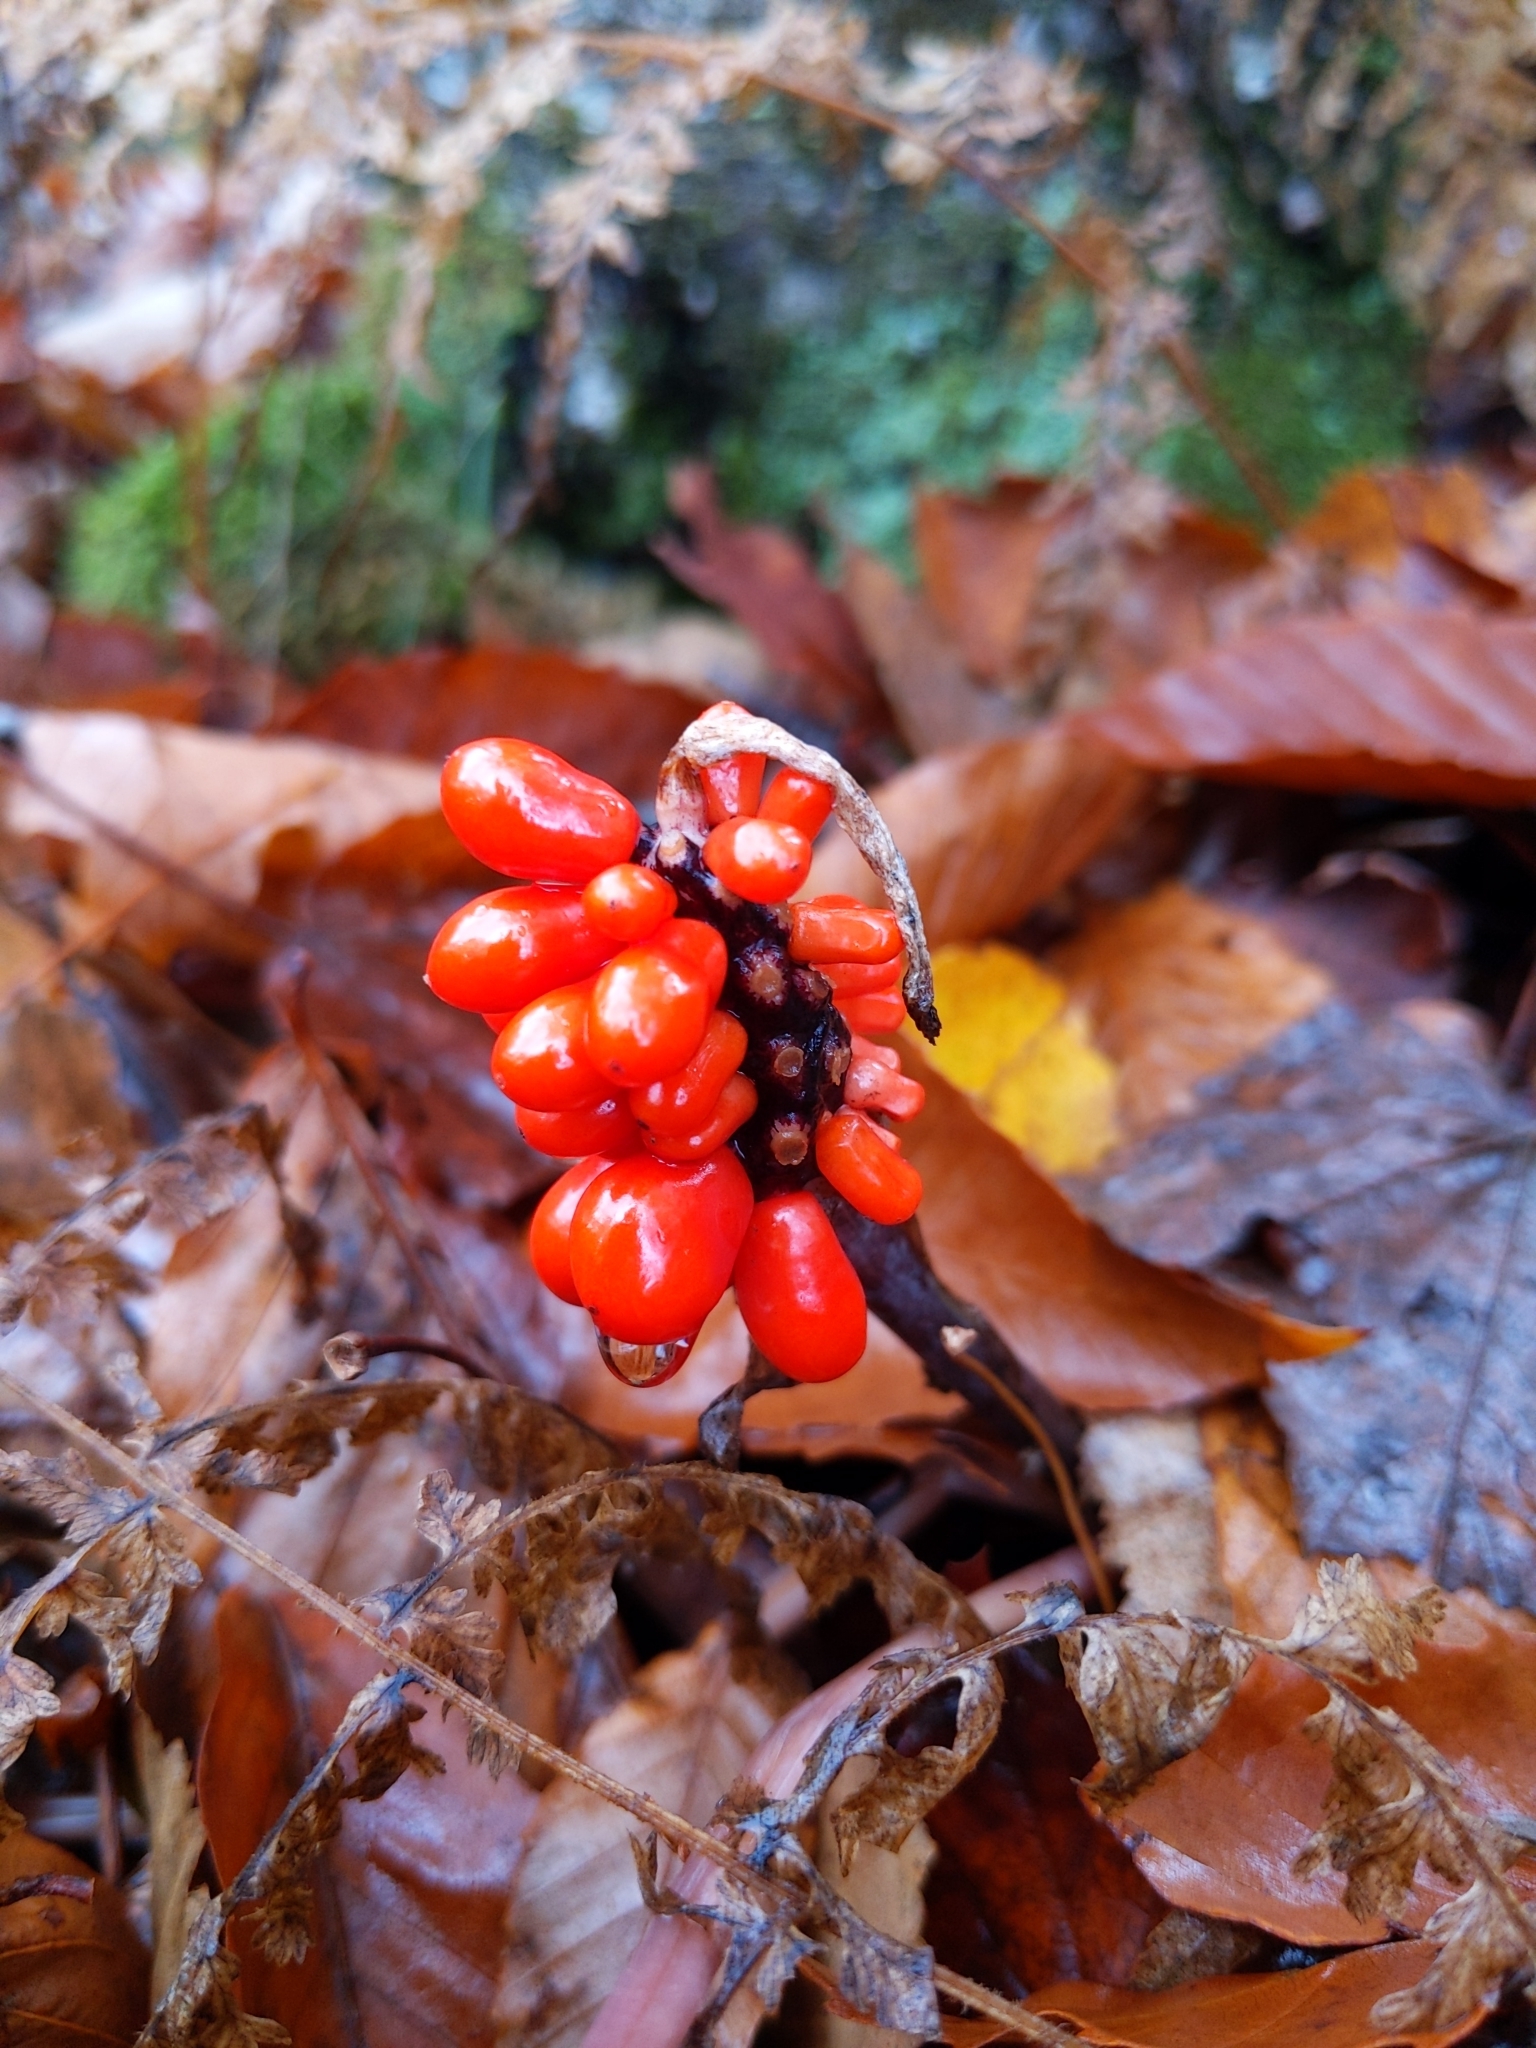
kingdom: Plantae
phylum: Tracheophyta
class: Liliopsida
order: Alismatales
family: Araceae
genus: Arisaema
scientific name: Arisaema triphyllum
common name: Jack-in-the-pulpit
